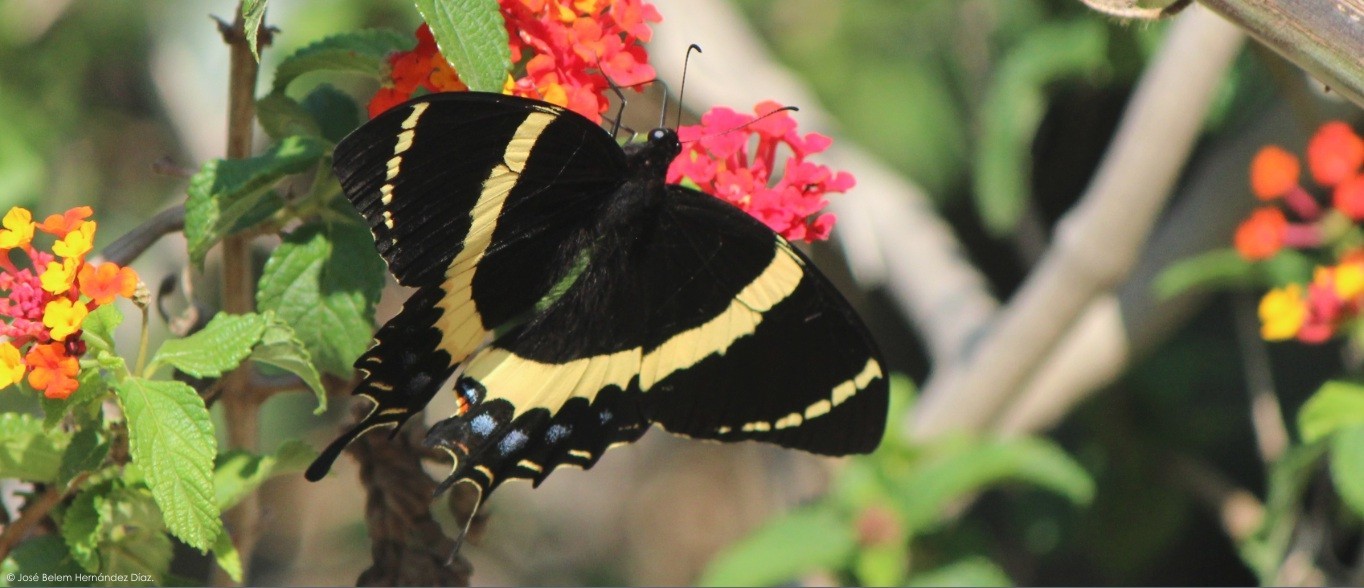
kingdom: Animalia
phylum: Arthropoda
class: Insecta
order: Lepidoptera
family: Papilionidae
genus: Papilio
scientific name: Papilio garamas
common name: Magnificent swallowtail
